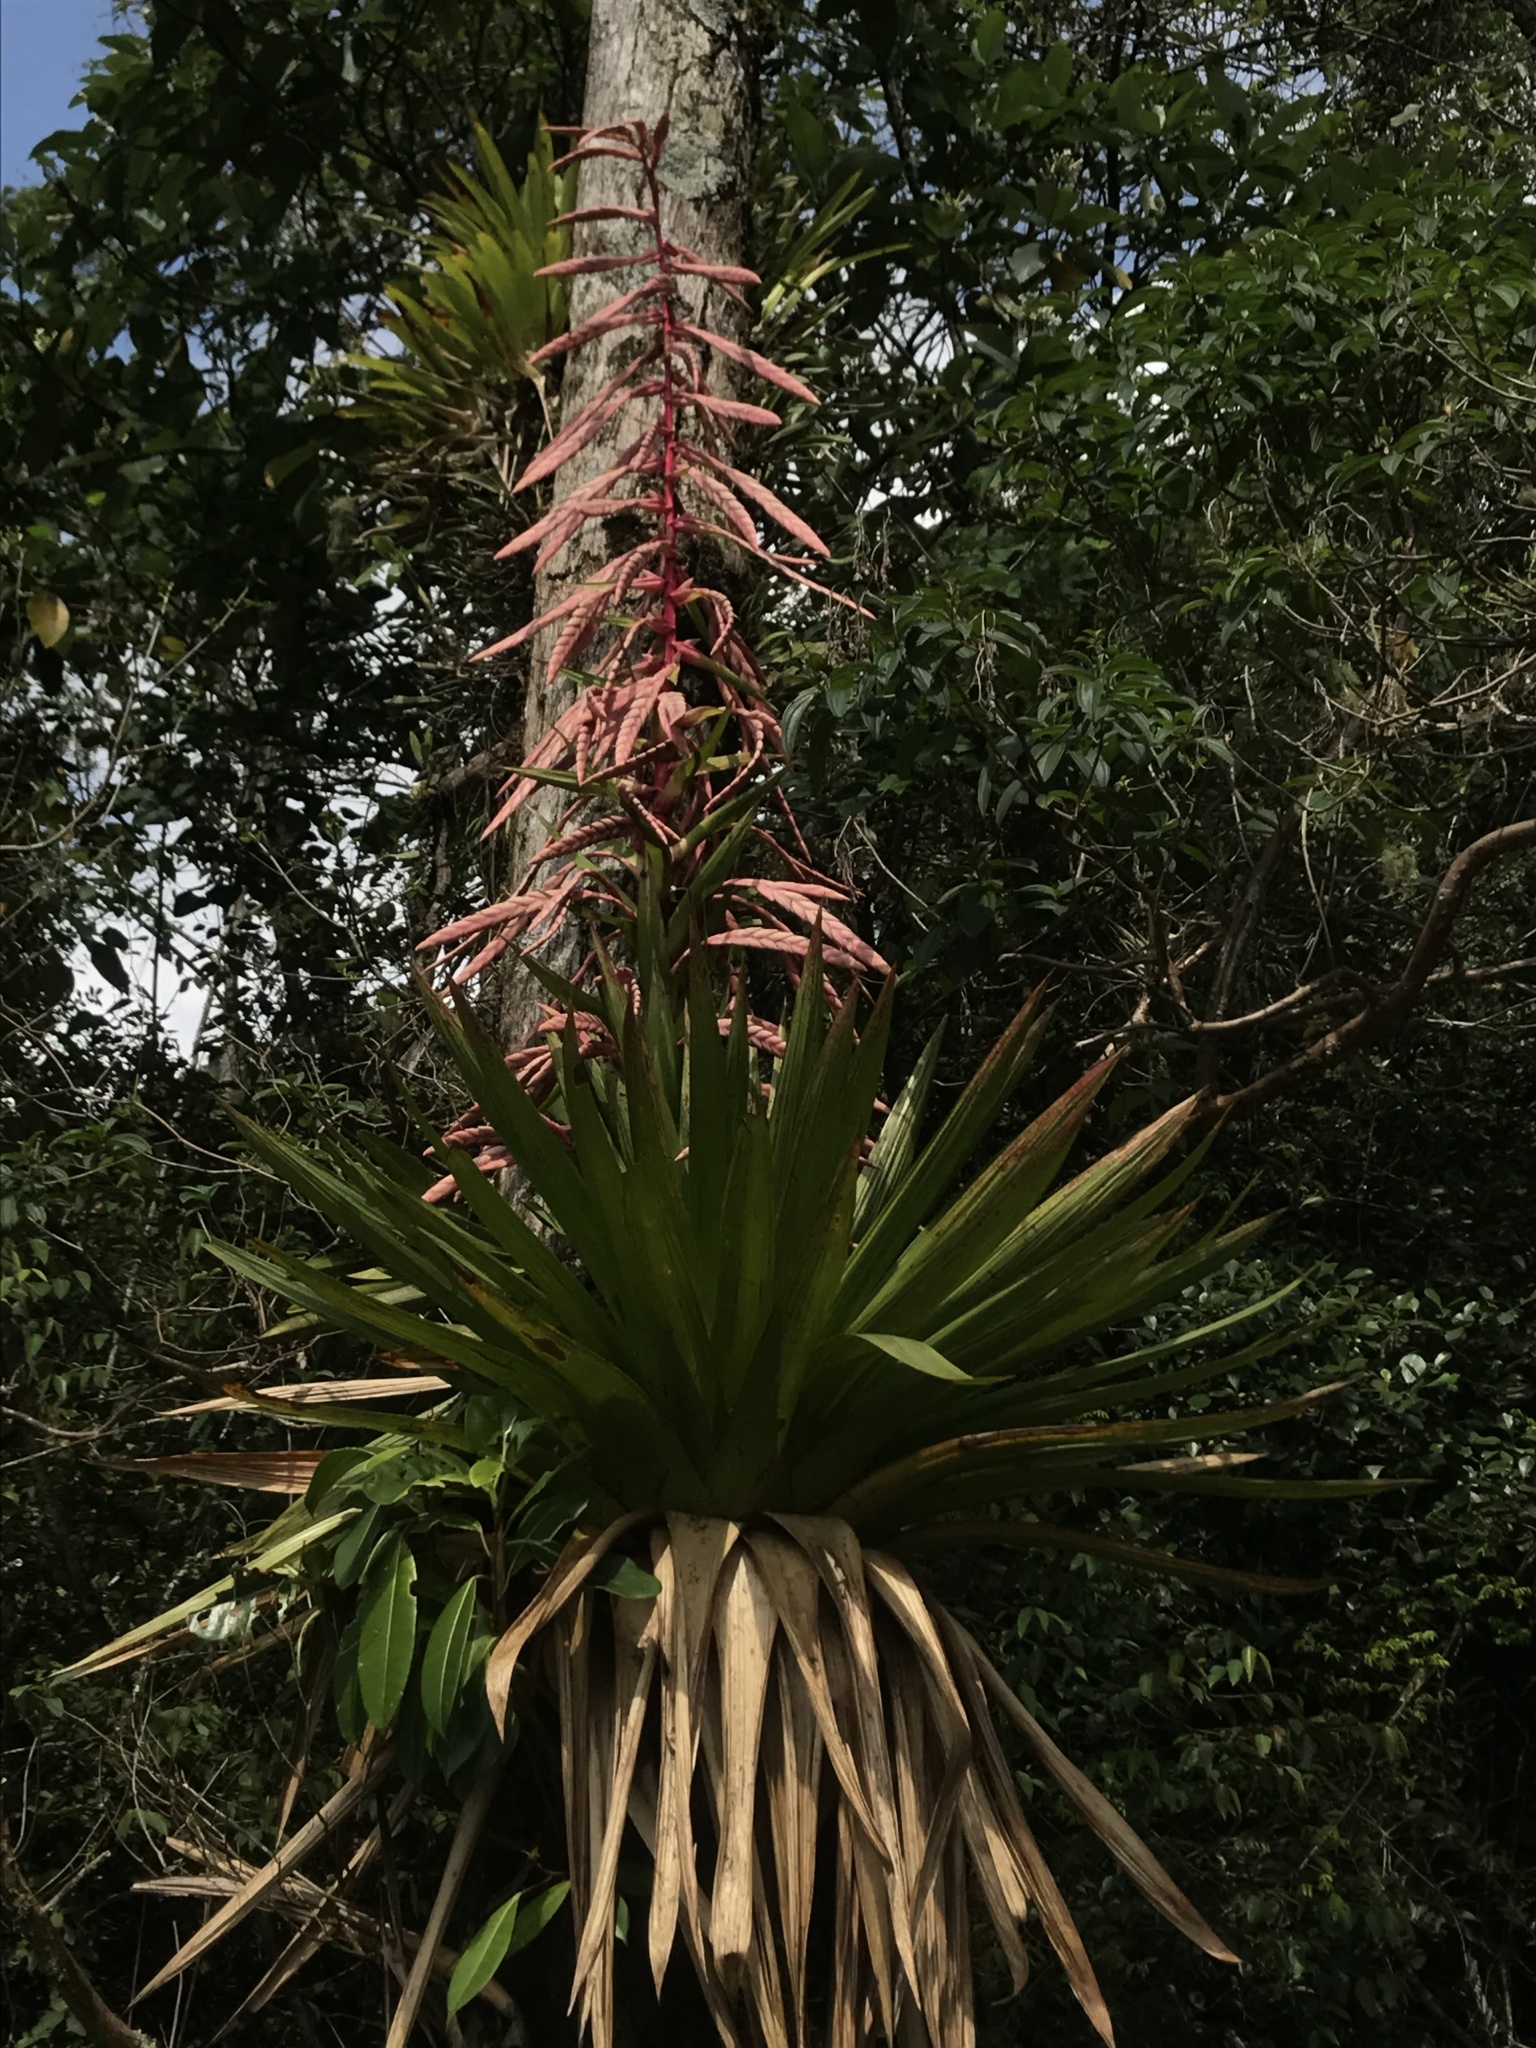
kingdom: Plantae
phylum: Tracheophyta
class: Liliopsida
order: Poales
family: Bromeliaceae
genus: Tillandsia
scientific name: Tillandsia fendleri
